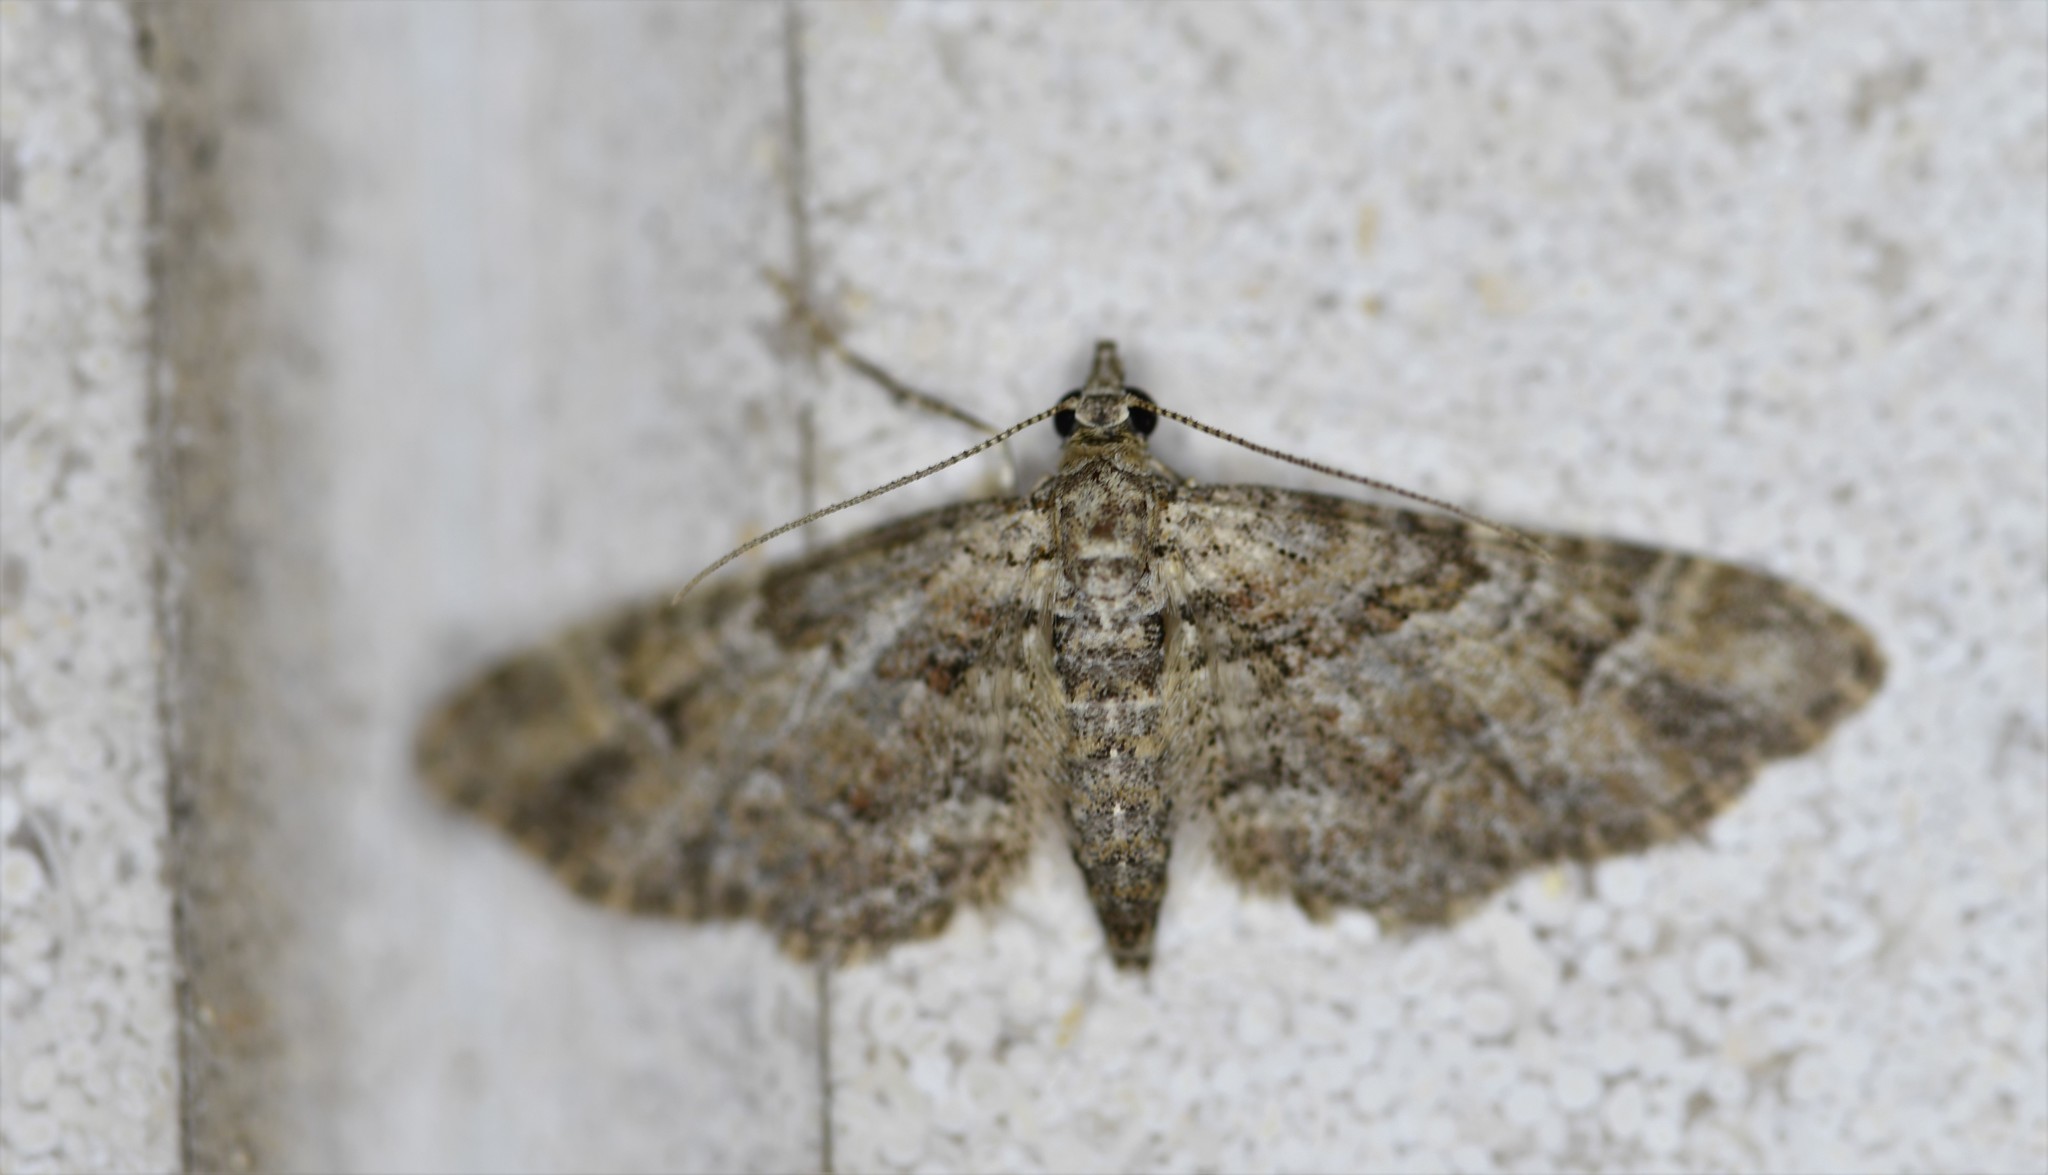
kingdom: Animalia
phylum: Arthropoda
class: Insecta
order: Lepidoptera
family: Geometridae
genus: Gymnoscelis
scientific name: Gymnoscelis rufifasciata
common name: Double-striped pug
